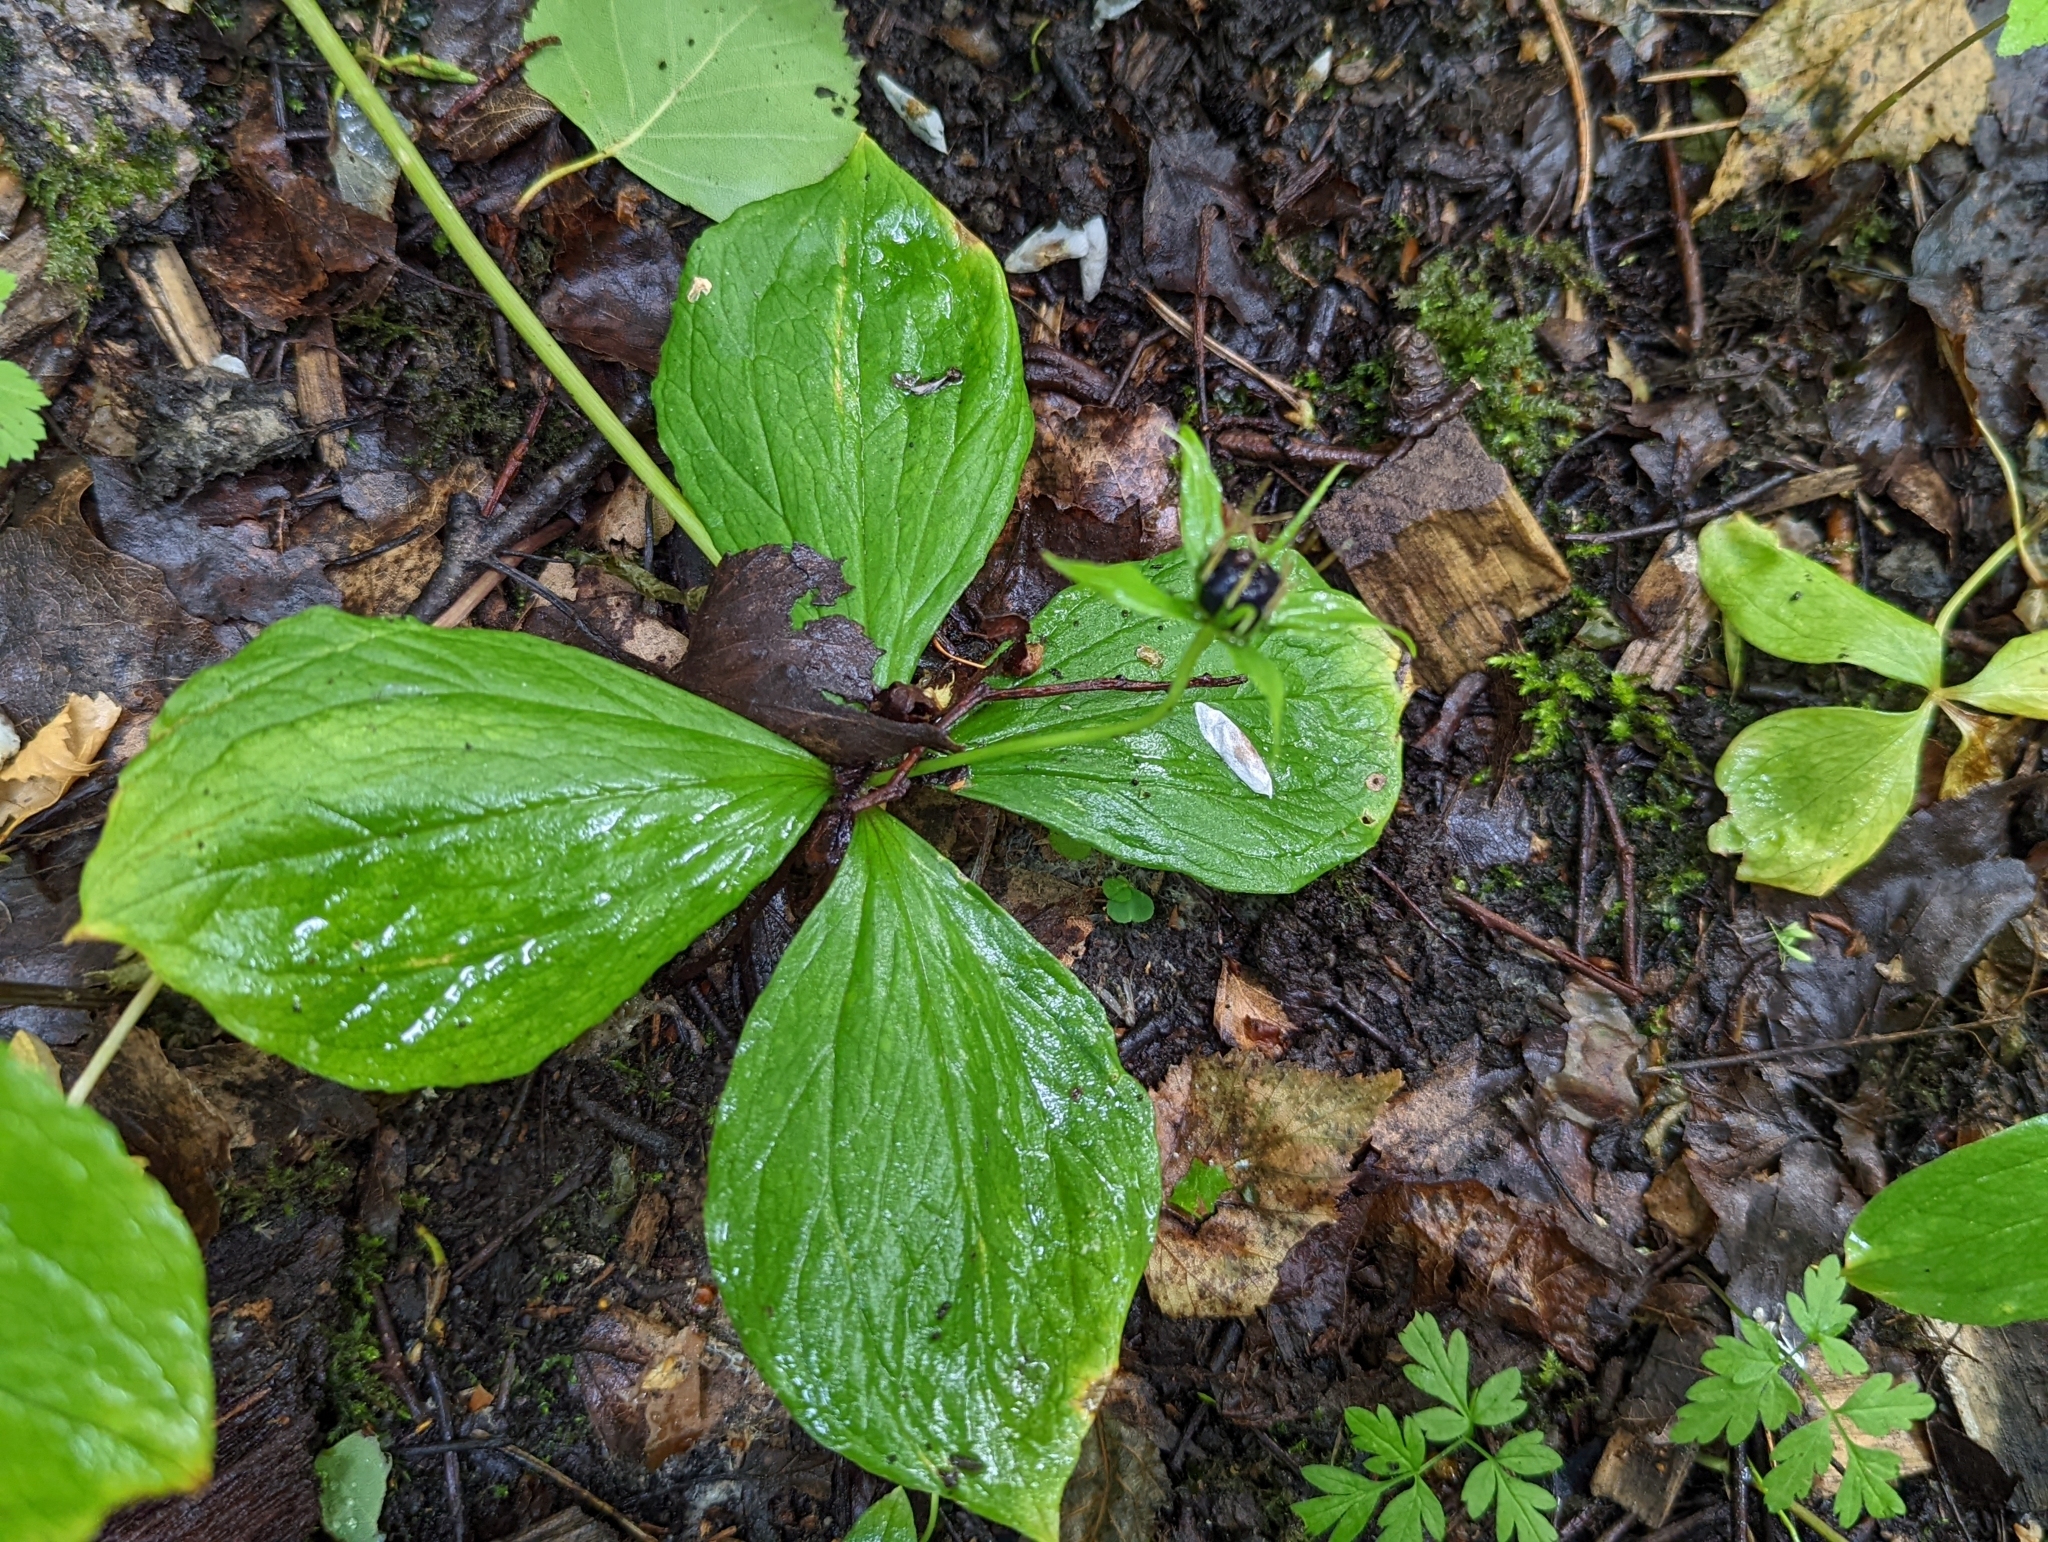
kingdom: Plantae
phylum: Tracheophyta
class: Liliopsida
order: Liliales
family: Melanthiaceae
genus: Paris
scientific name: Paris quadrifolia
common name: Herb-paris
